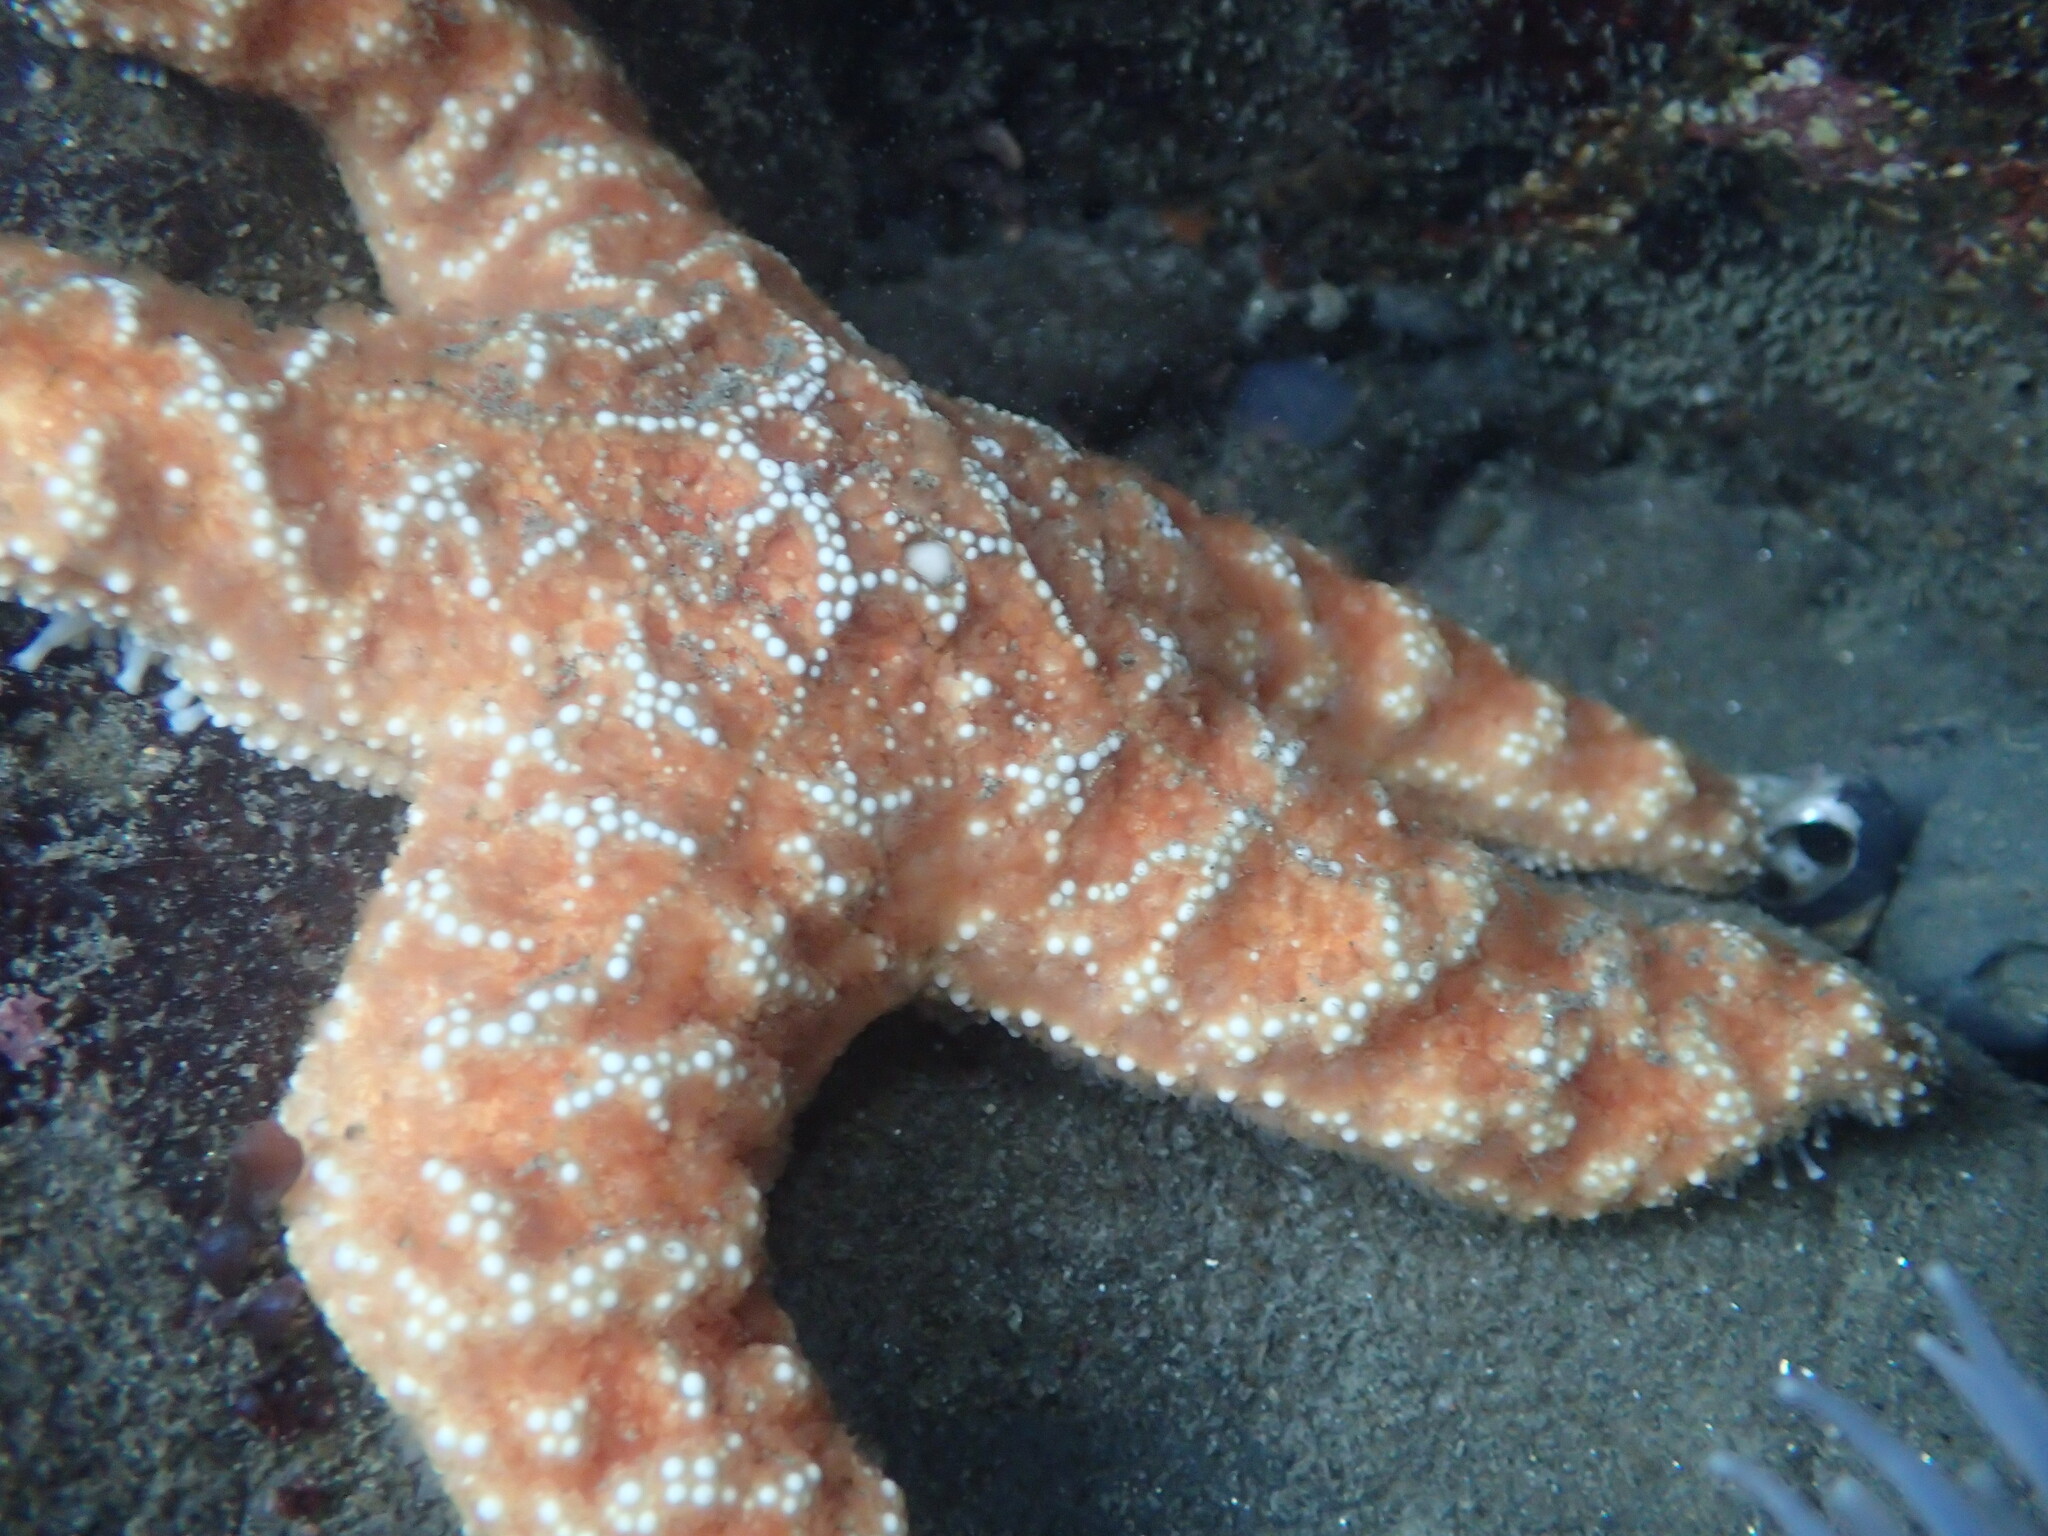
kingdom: Animalia
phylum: Echinodermata
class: Asteroidea
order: Forcipulatida
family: Asteriidae
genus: Pisaster
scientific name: Pisaster ochraceus
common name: Ochre stars
